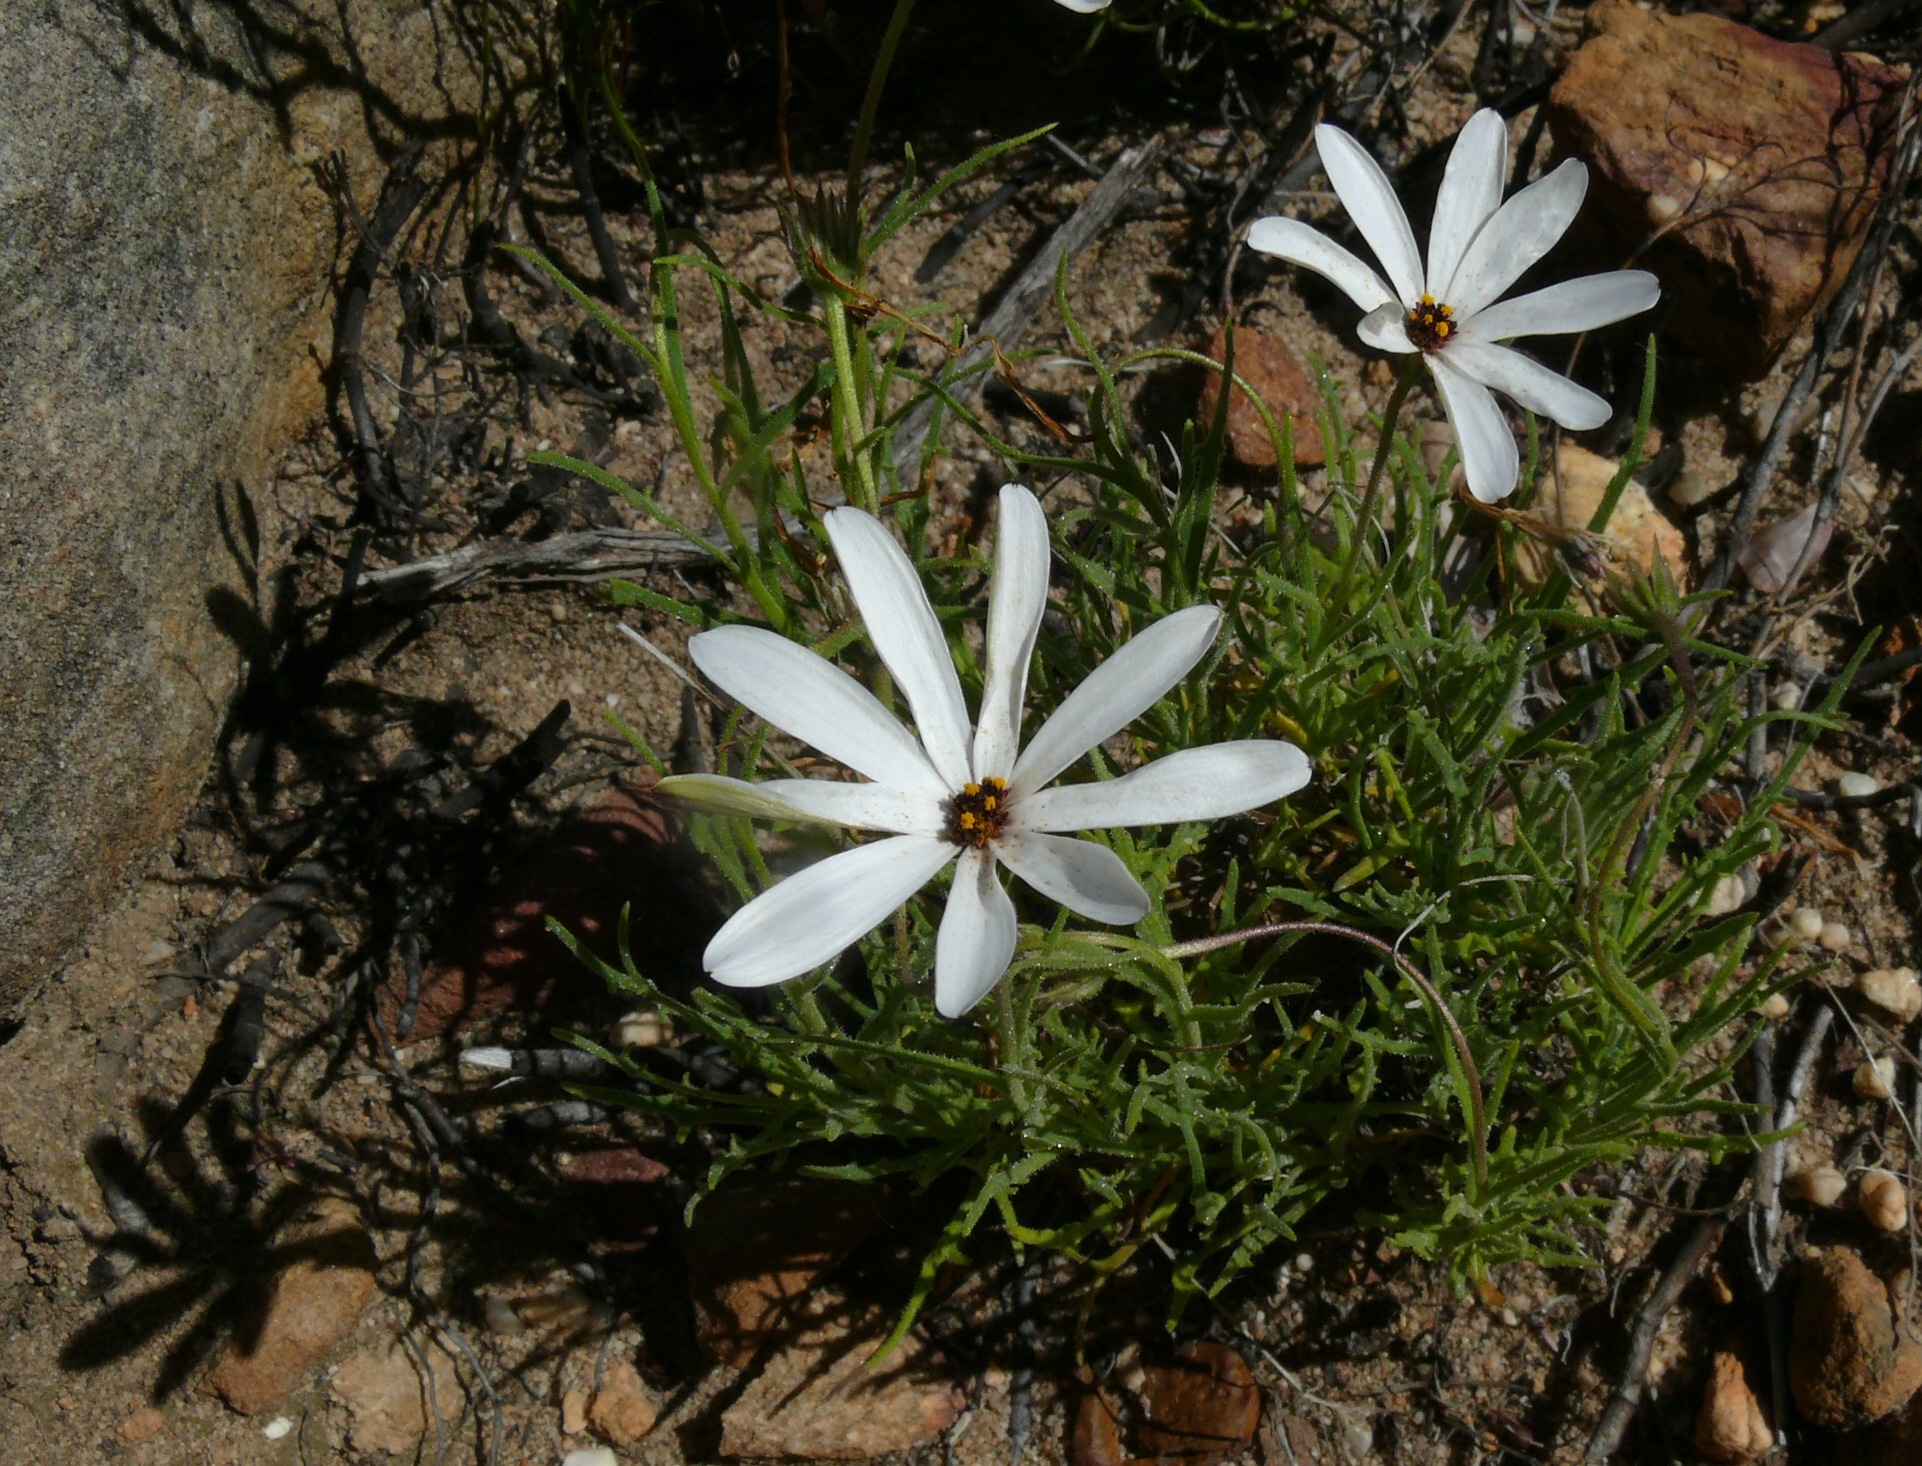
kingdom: Plantae
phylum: Tracheophyta
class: Magnoliopsida
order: Asterales
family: Asteraceae
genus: Dimorphotheca
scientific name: Dimorphotheca nudicaulis
